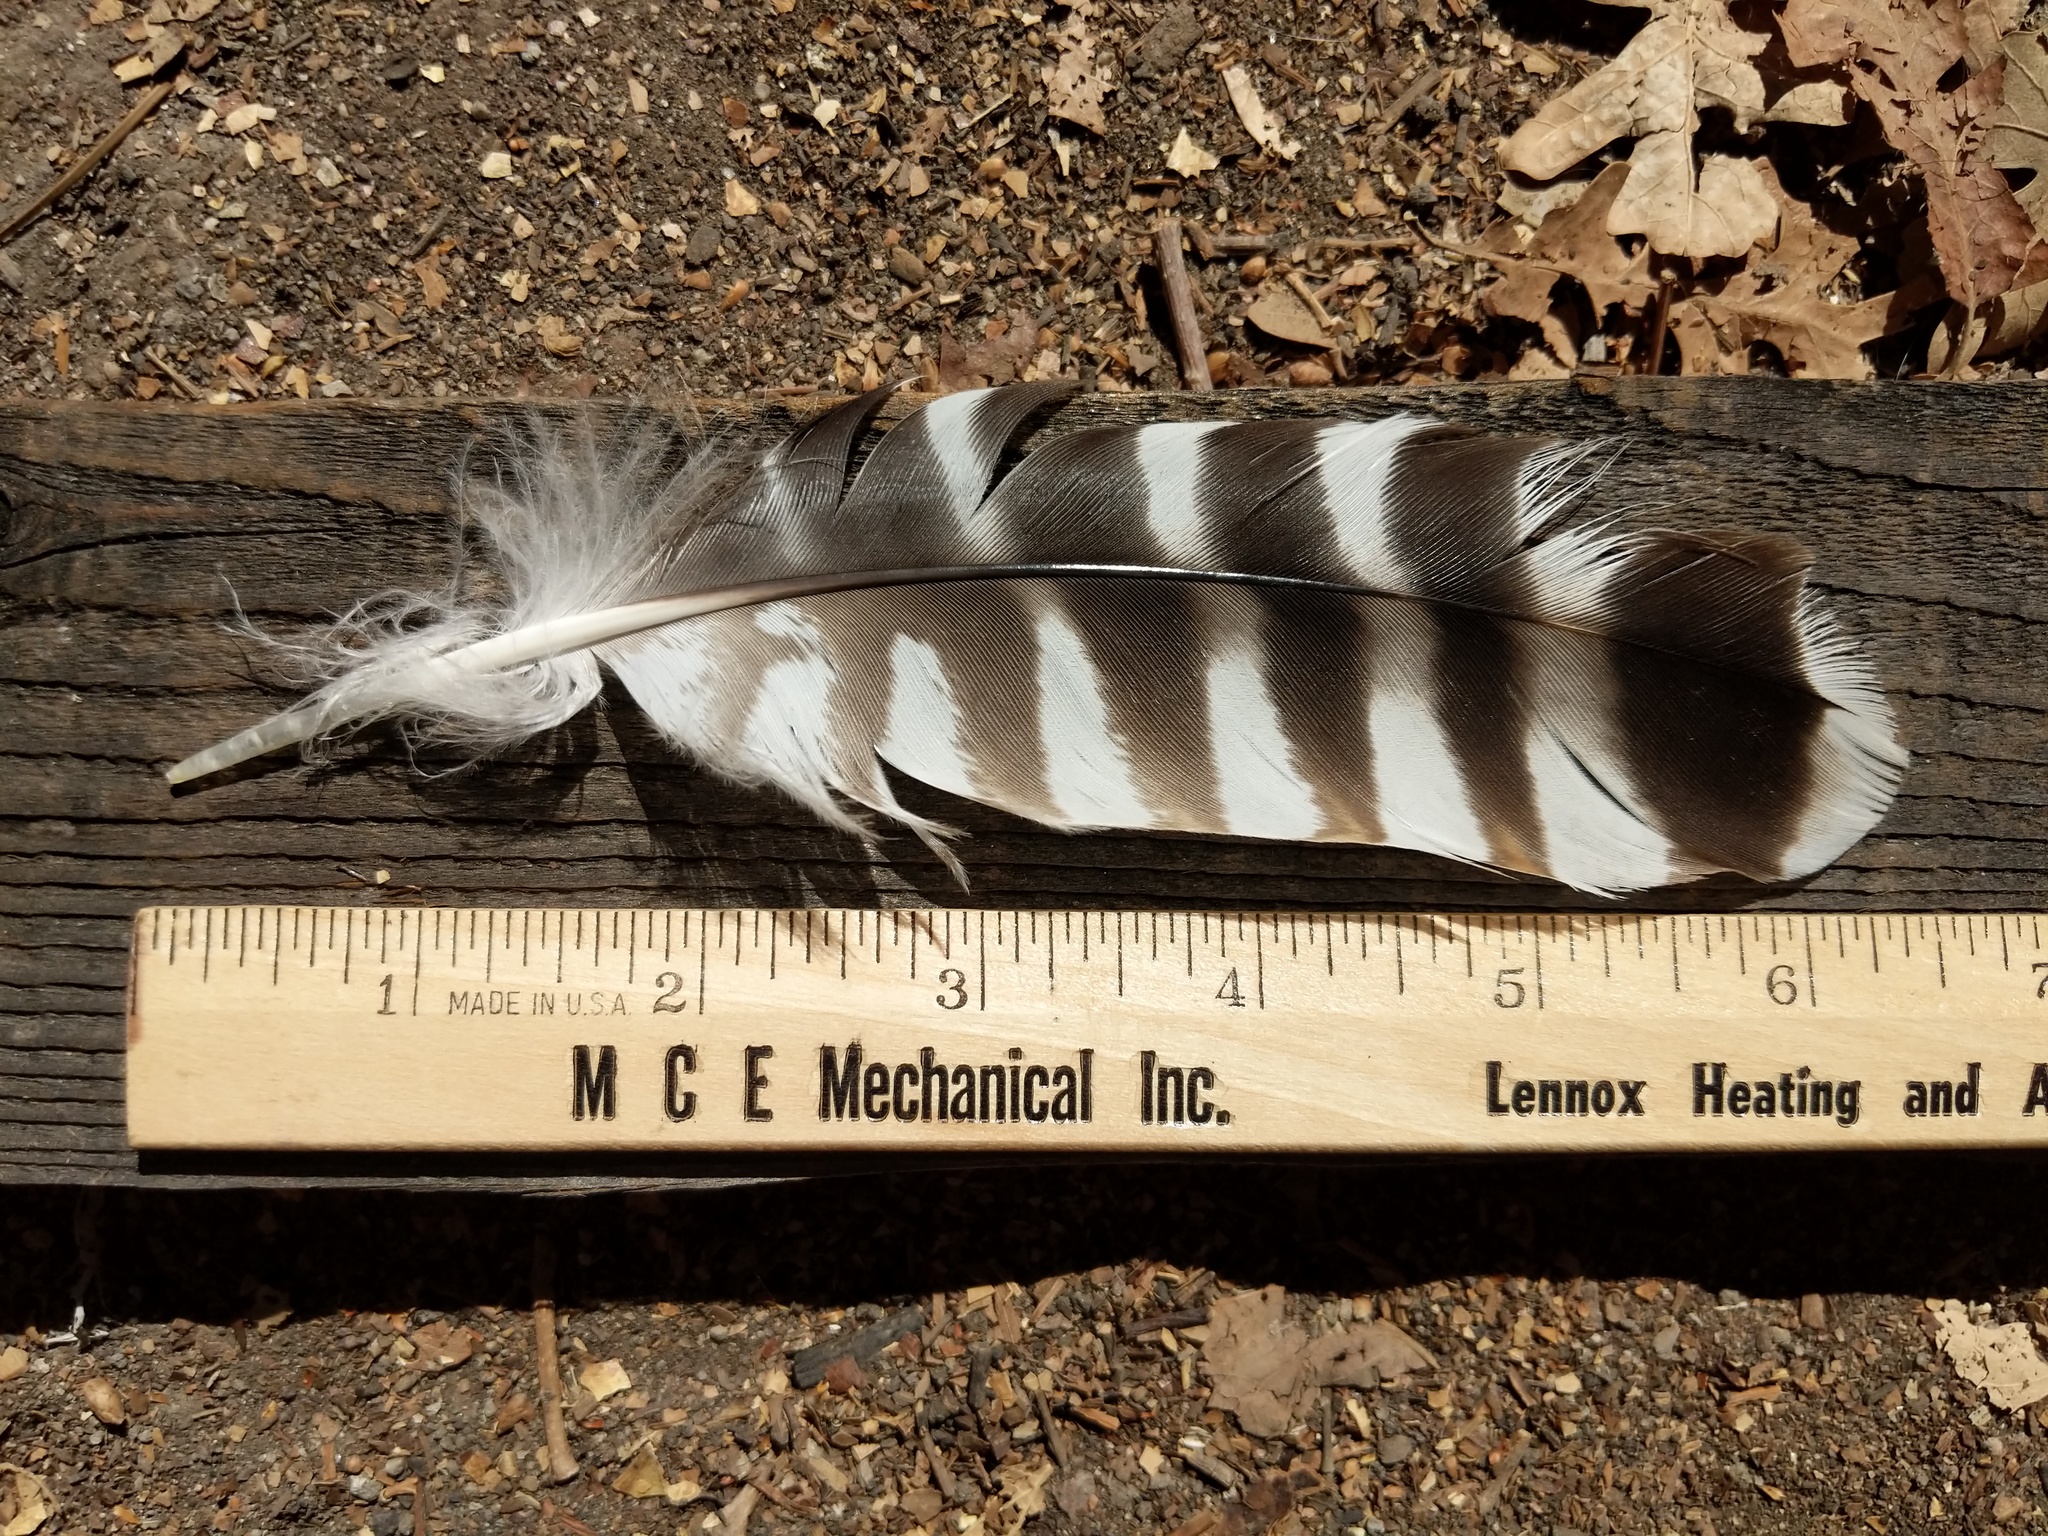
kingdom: Animalia
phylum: Chordata
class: Aves
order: Accipitriformes
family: Accipitridae
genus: Buteo
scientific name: Buteo lineatus
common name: Red-shouldered hawk
